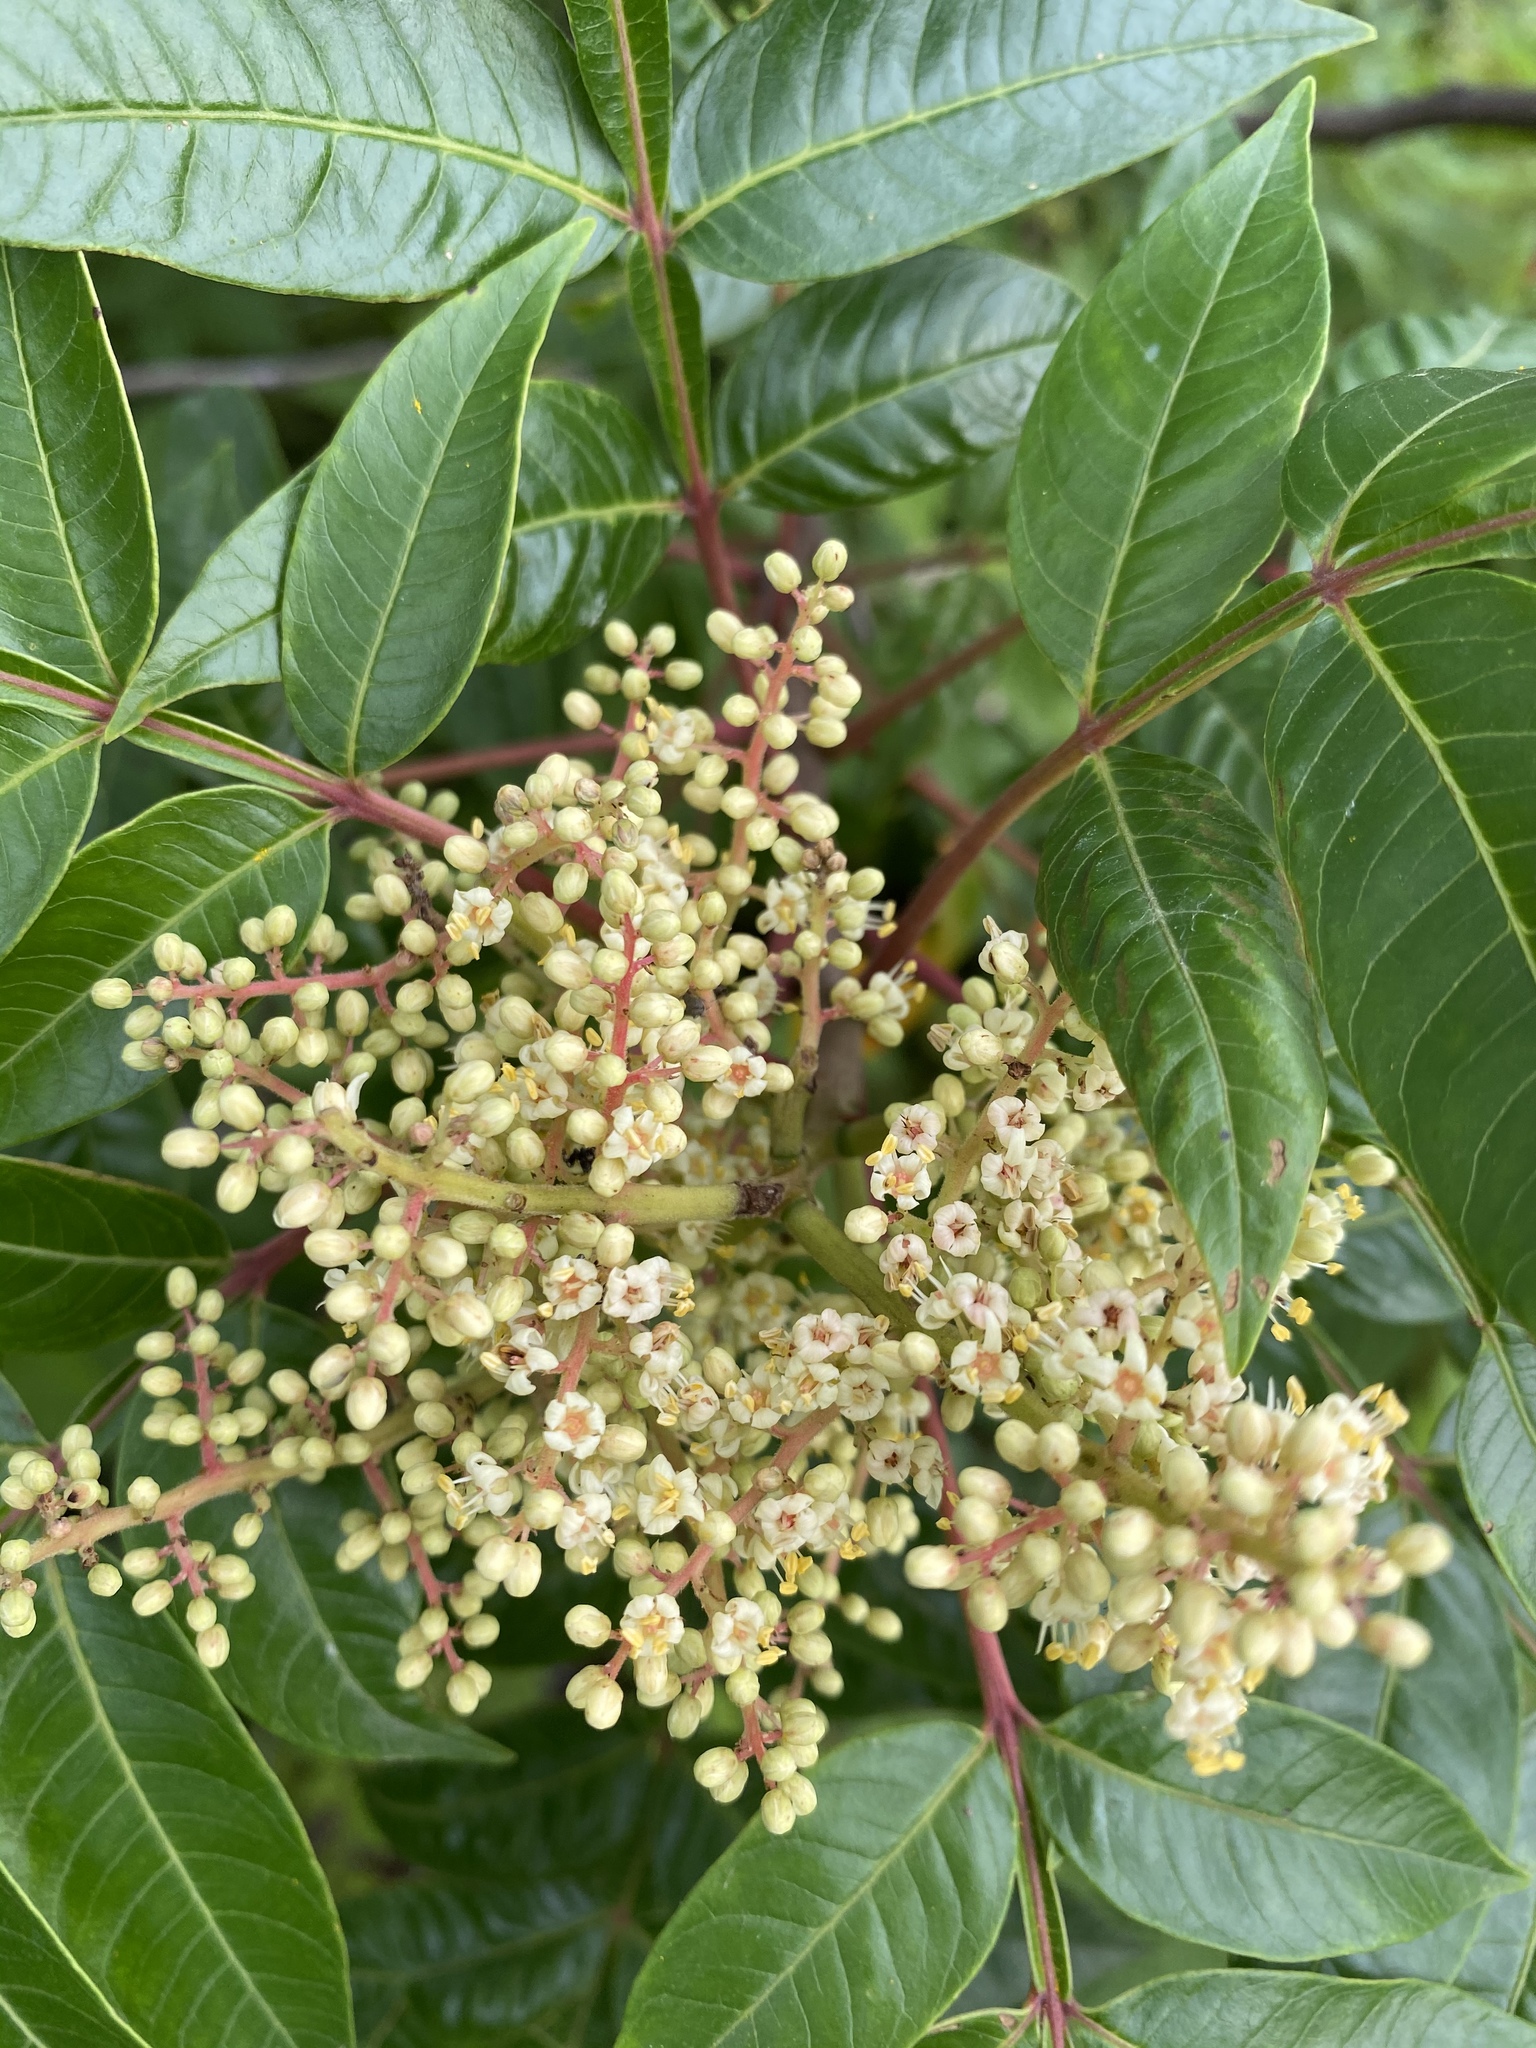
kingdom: Plantae
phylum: Tracheophyta
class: Magnoliopsida
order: Sapindales
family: Anacardiaceae
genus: Rhus
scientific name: Rhus copallina
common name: Shining sumac
